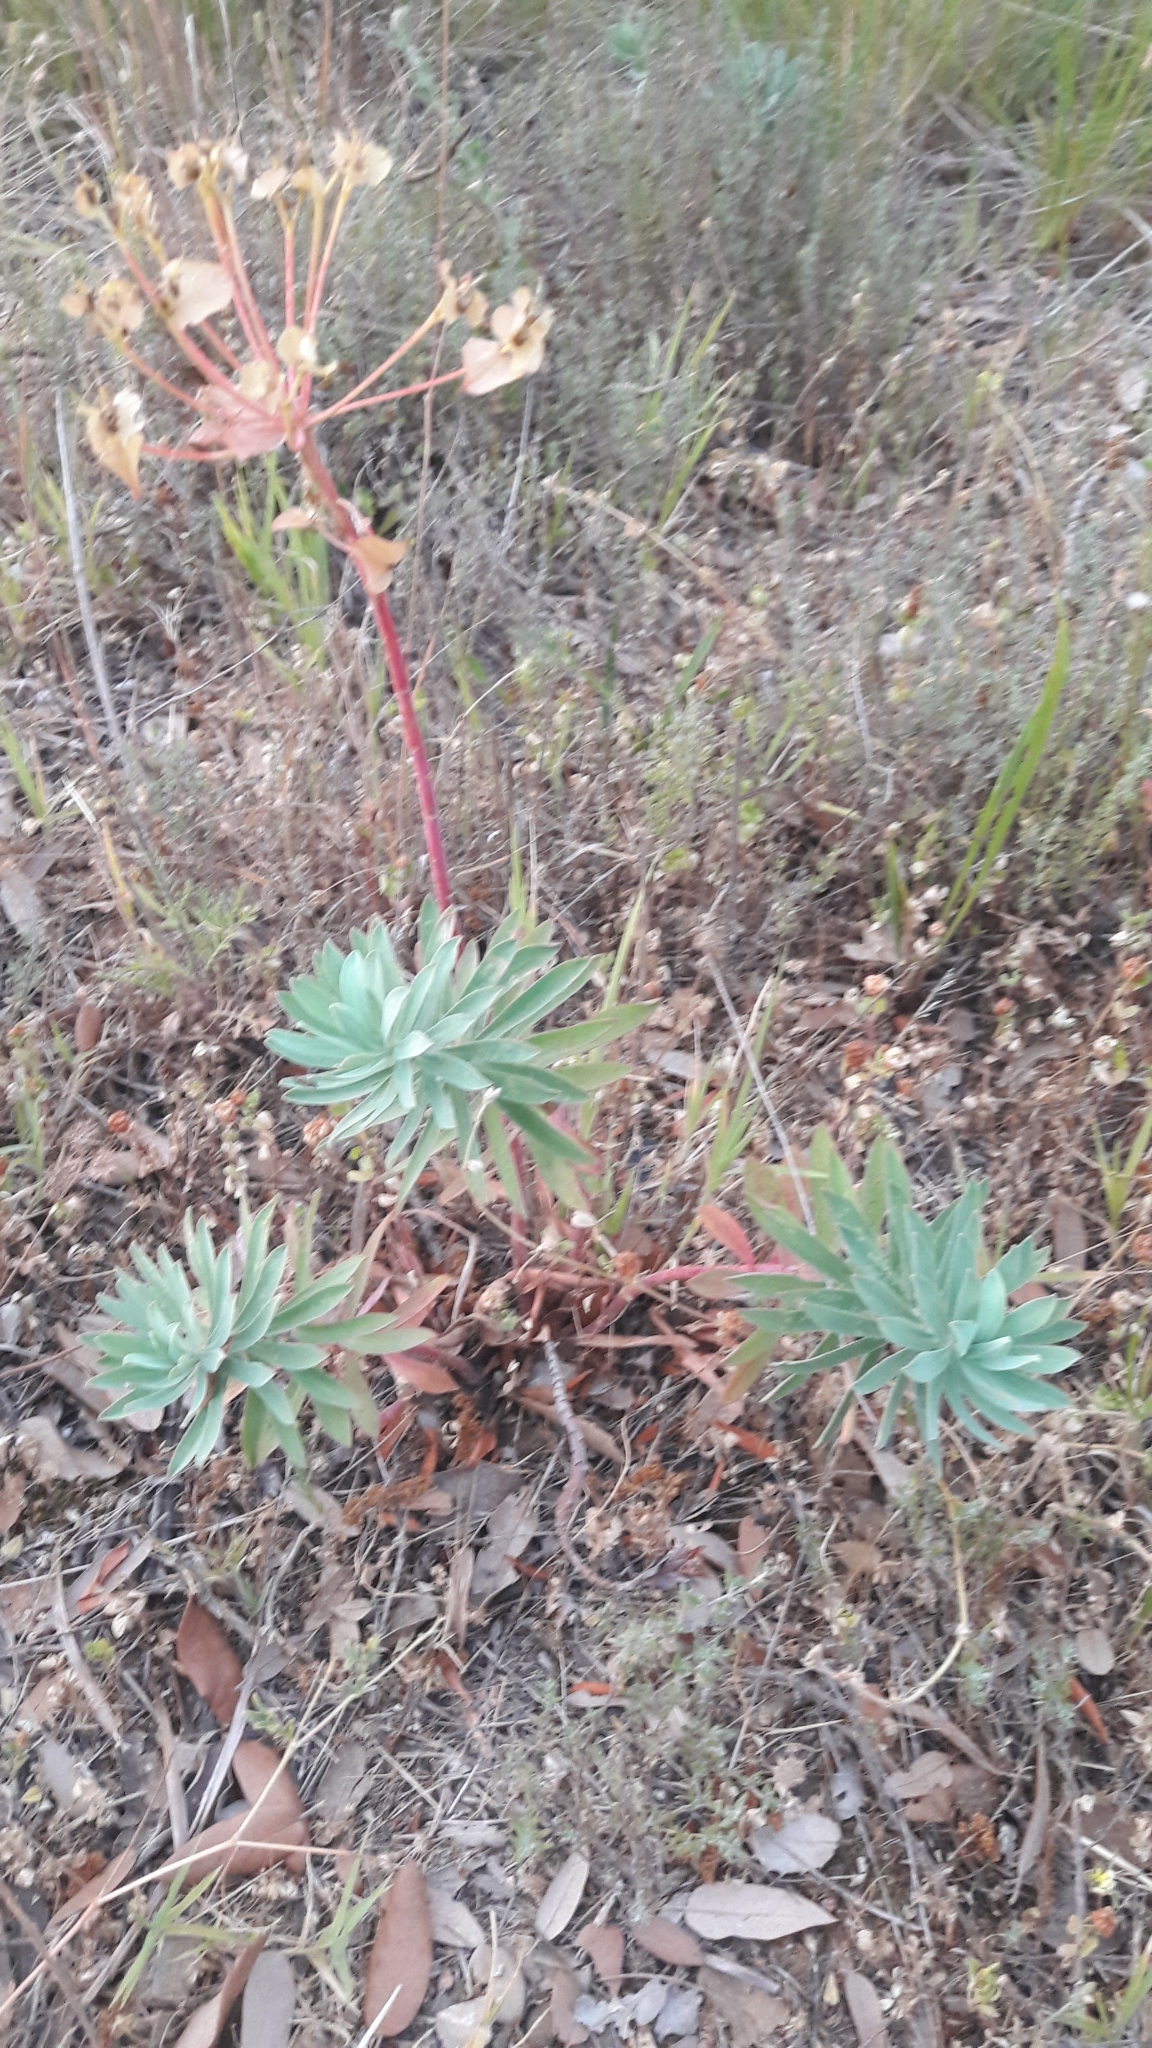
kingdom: Plantae
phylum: Tracheophyta
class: Magnoliopsida
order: Malpighiales
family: Euphorbiaceae
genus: Euphorbia
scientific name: Euphorbia nicaeensis
